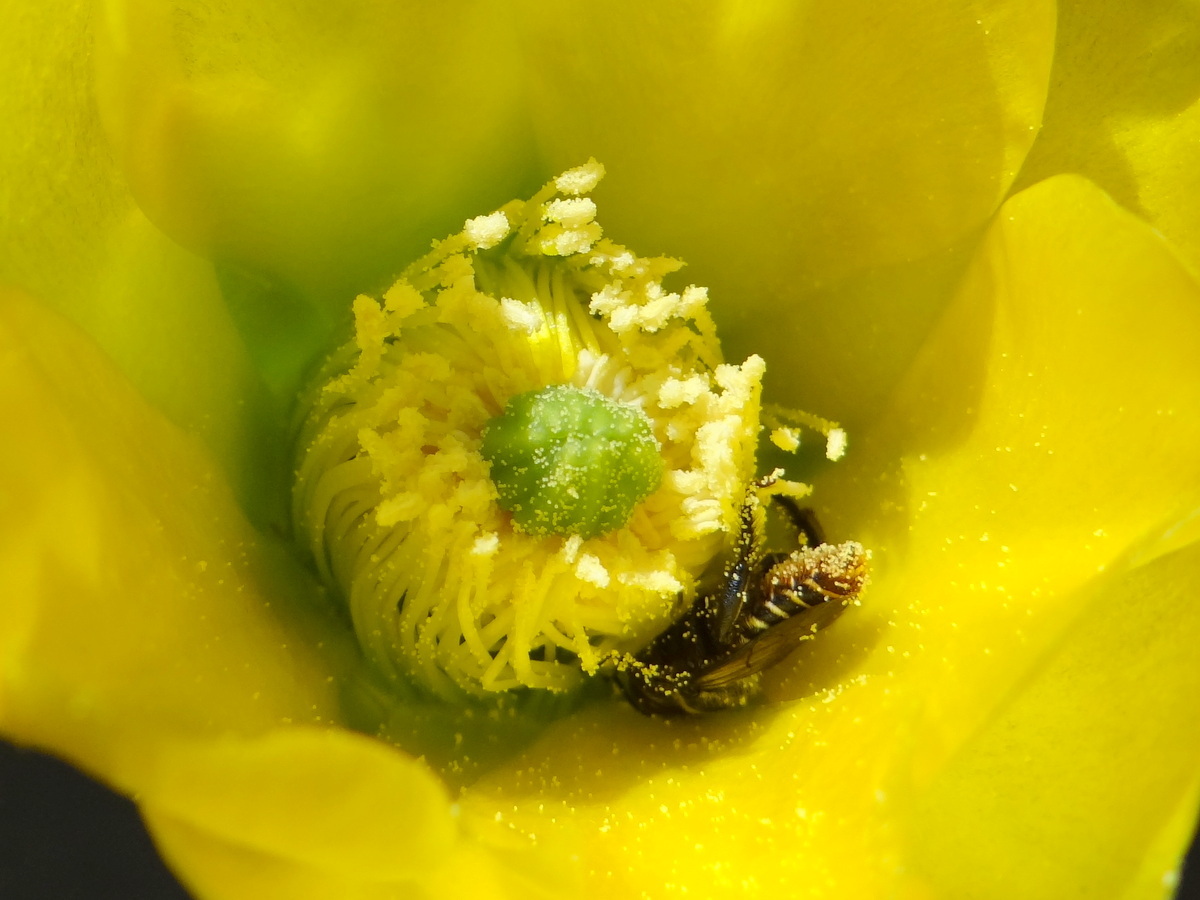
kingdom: Animalia
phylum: Arthropoda
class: Insecta
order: Hymenoptera
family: Megachilidae
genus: Lithurgopsis
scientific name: Lithurgopsis rufiventris
